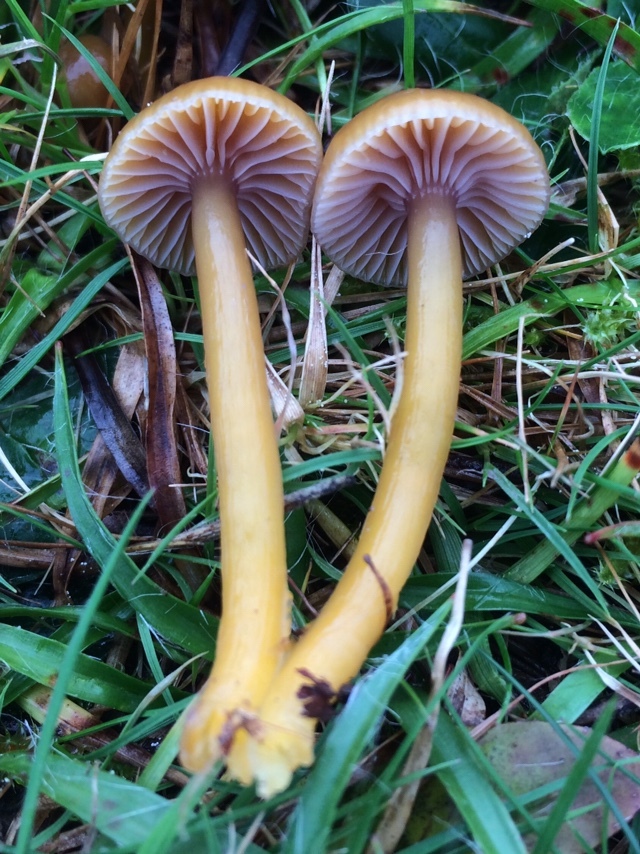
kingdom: Fungi
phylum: Basidiomycota
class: Agaricomycetes
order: Agaricales
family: Hygrophoraceae
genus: Gliophorus
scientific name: Gliophorus laetus
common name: Heath waxcap
